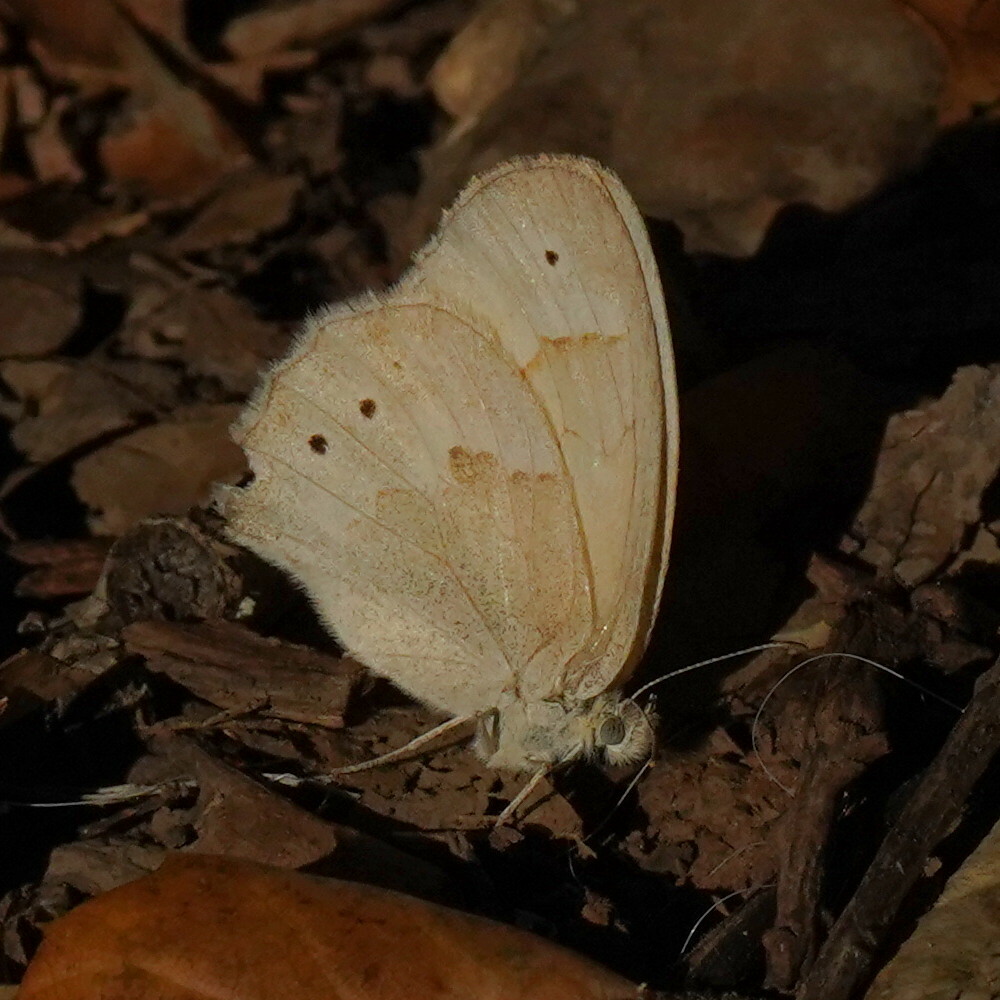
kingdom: Animalia
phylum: Arthropoda
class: Insecta
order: Lepidoptera
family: Nymphalidae
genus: Coenonympha
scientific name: Coenonympha california
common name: Common ringlet
